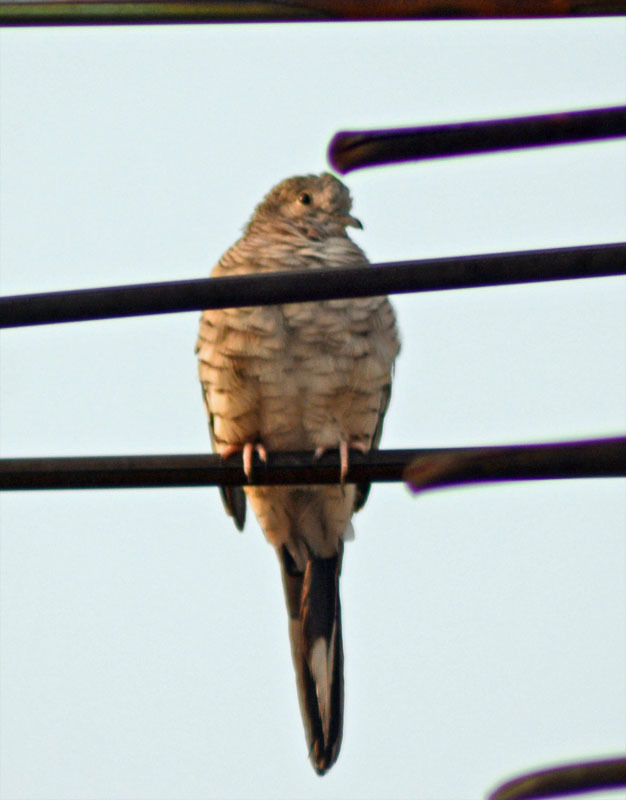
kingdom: Animalia
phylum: Chordata
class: Aves
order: Columbiformes
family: Columbidae
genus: Columbina
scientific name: Columbina inca
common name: Inca dove
